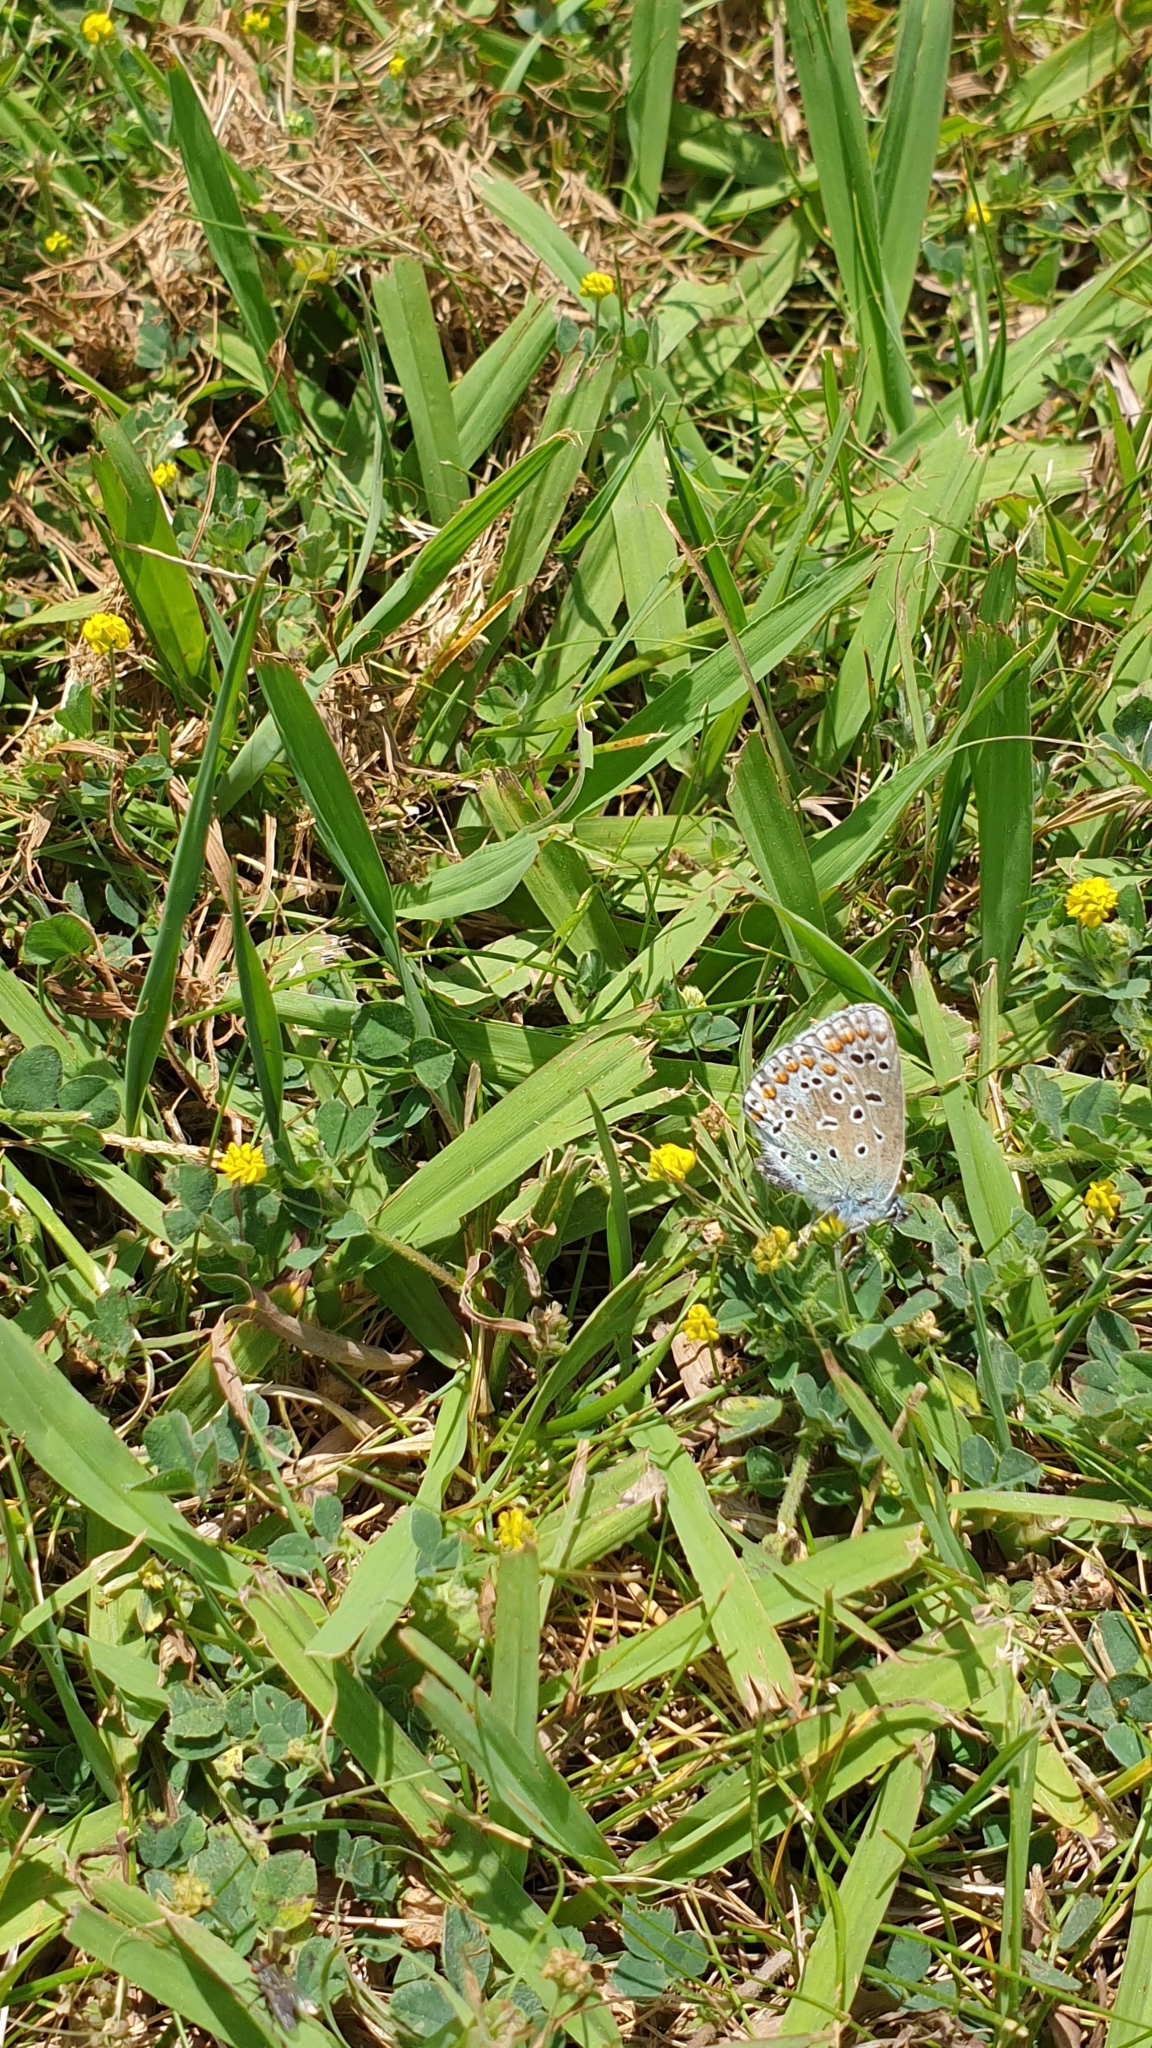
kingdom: Animalia
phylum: Arthropoda
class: Insecta
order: Lepidoptera
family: Lycaenidae
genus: Polyommatus
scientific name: Polyommatus icarus
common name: Common blue
